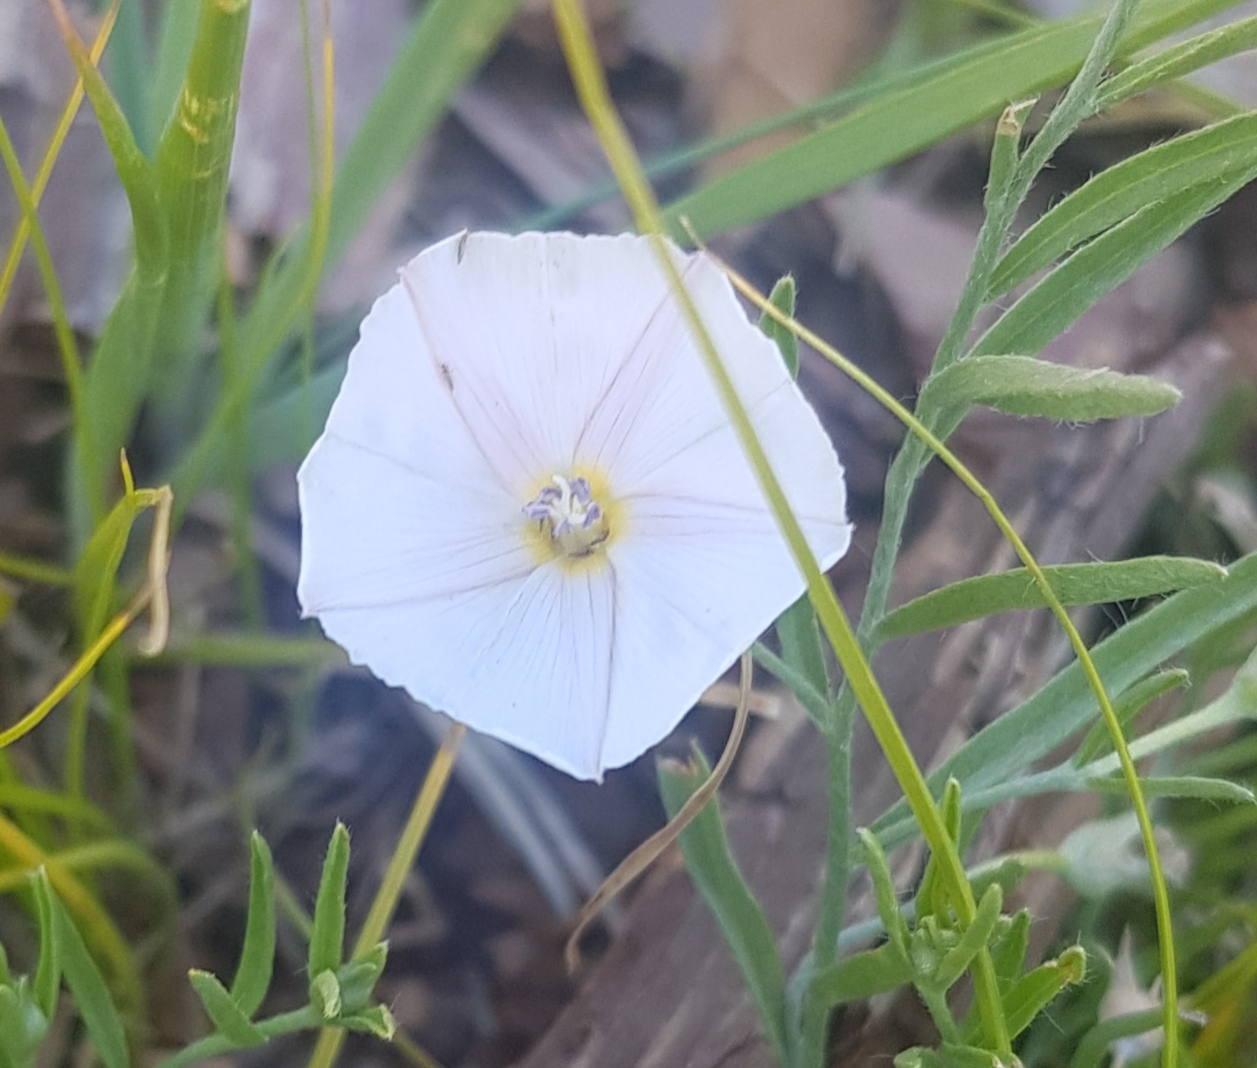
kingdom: Plantae
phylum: Tracheophyta
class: Magnoliopsida
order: Solanales
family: Convolvulaceae
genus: Convolvulus
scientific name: Convolvulus ammannii
